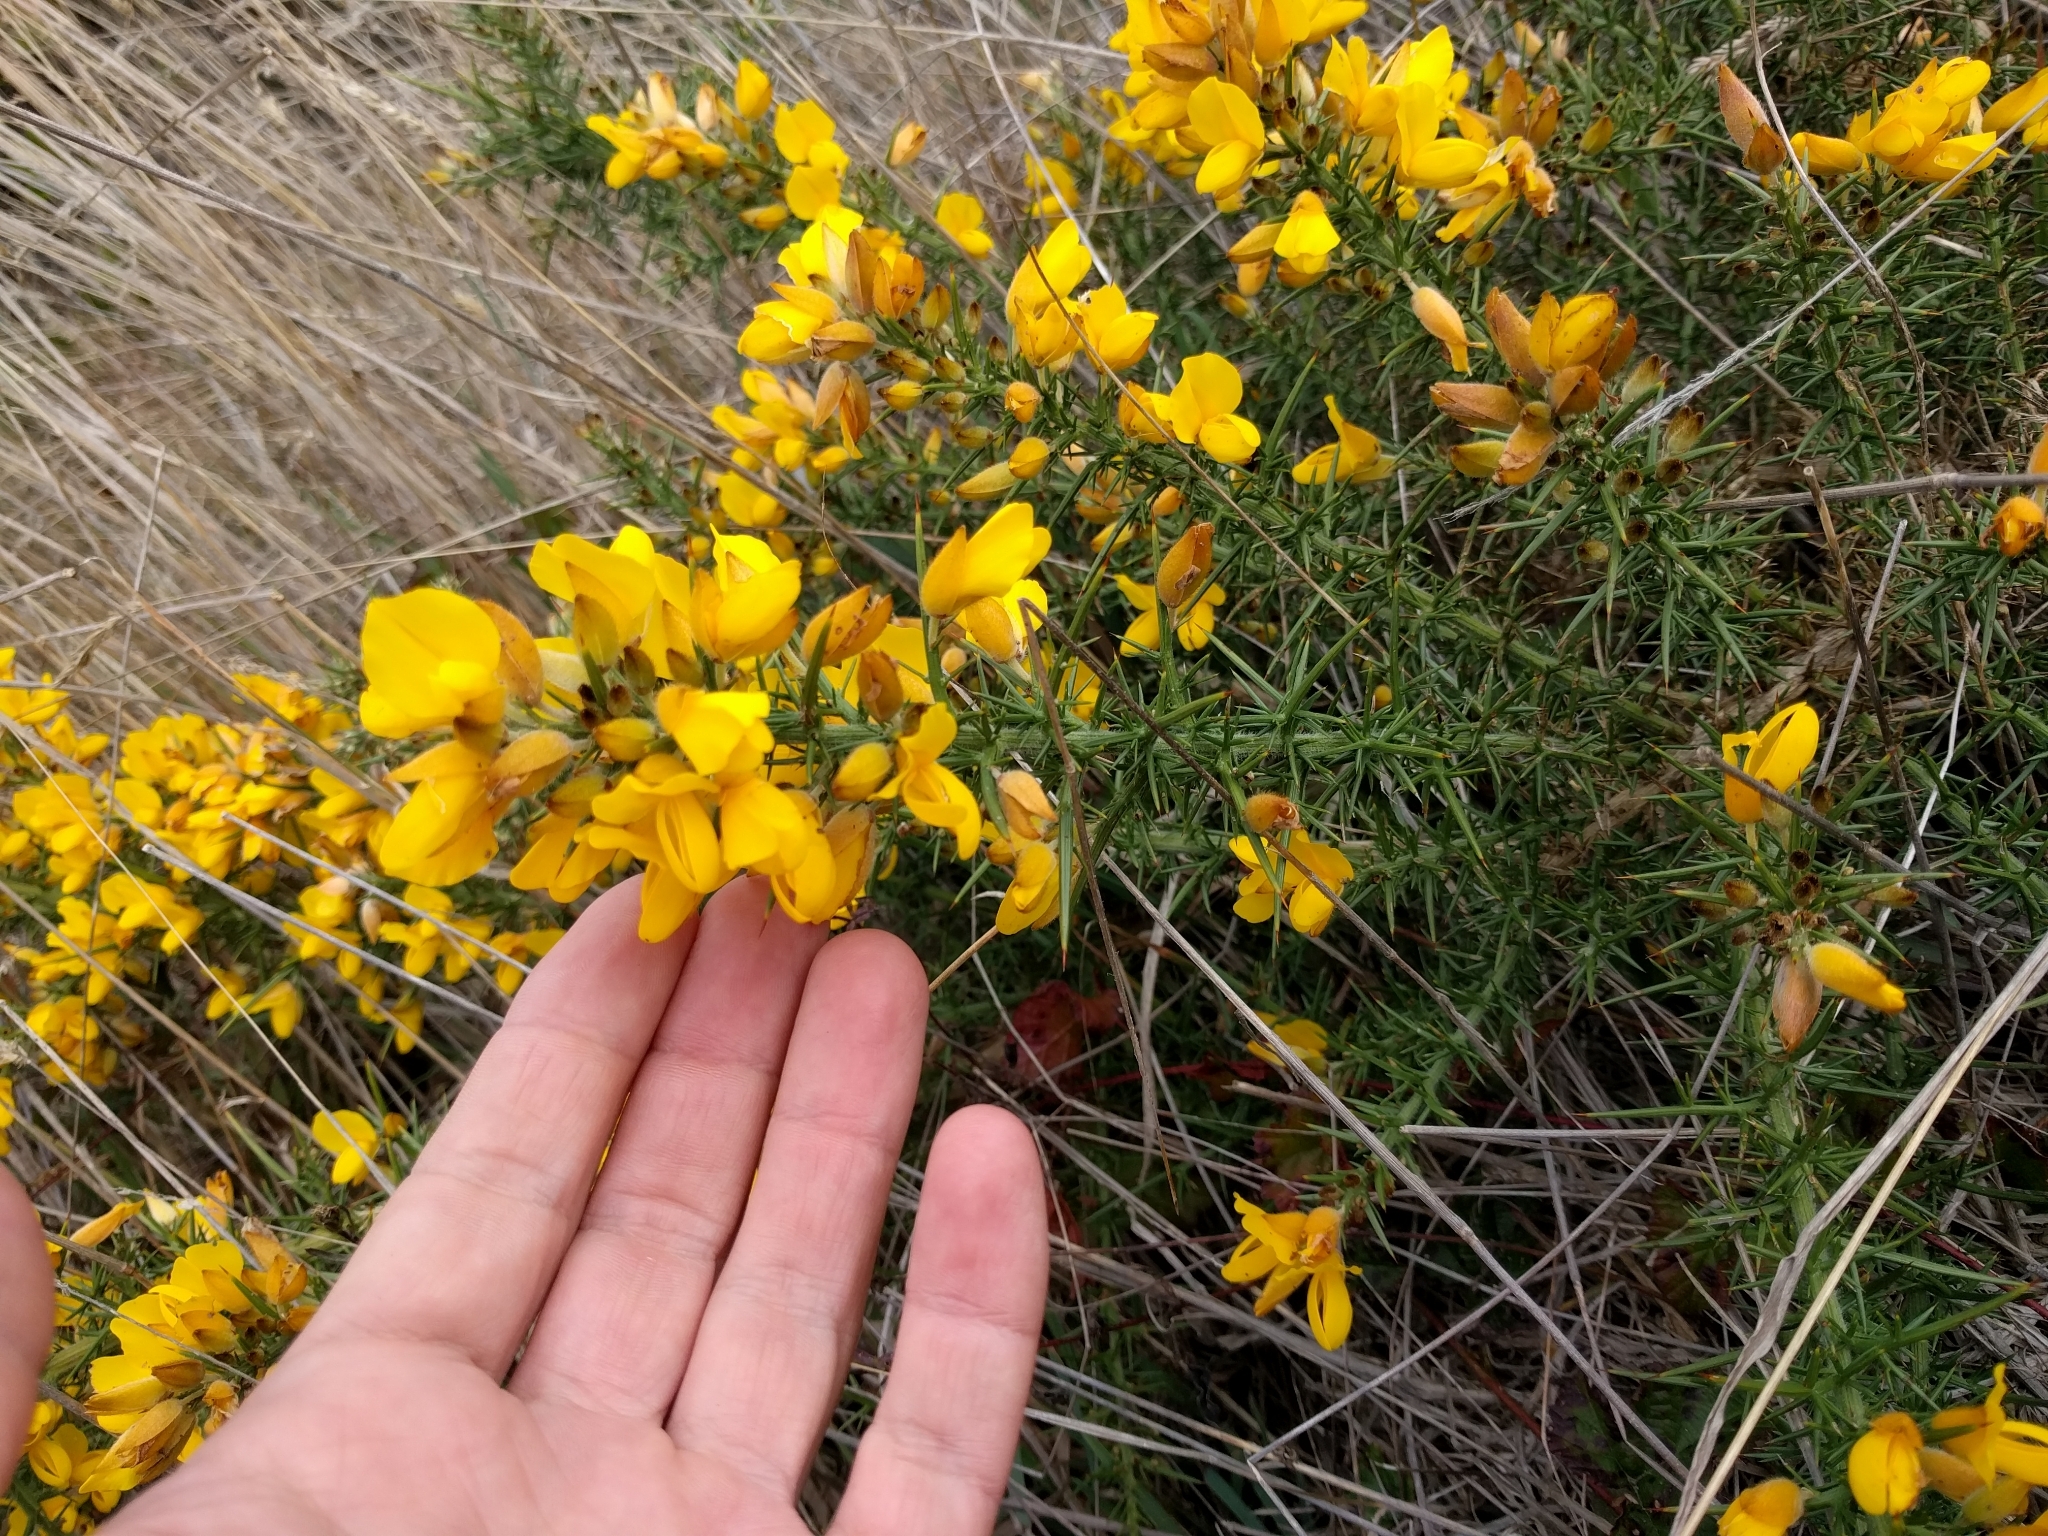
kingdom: Plantae
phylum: Tracheophyta
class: Magnoliopsida
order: Fabales
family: Fabaceae
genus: Ulex
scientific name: Ulex europaeus
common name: Common gorse
